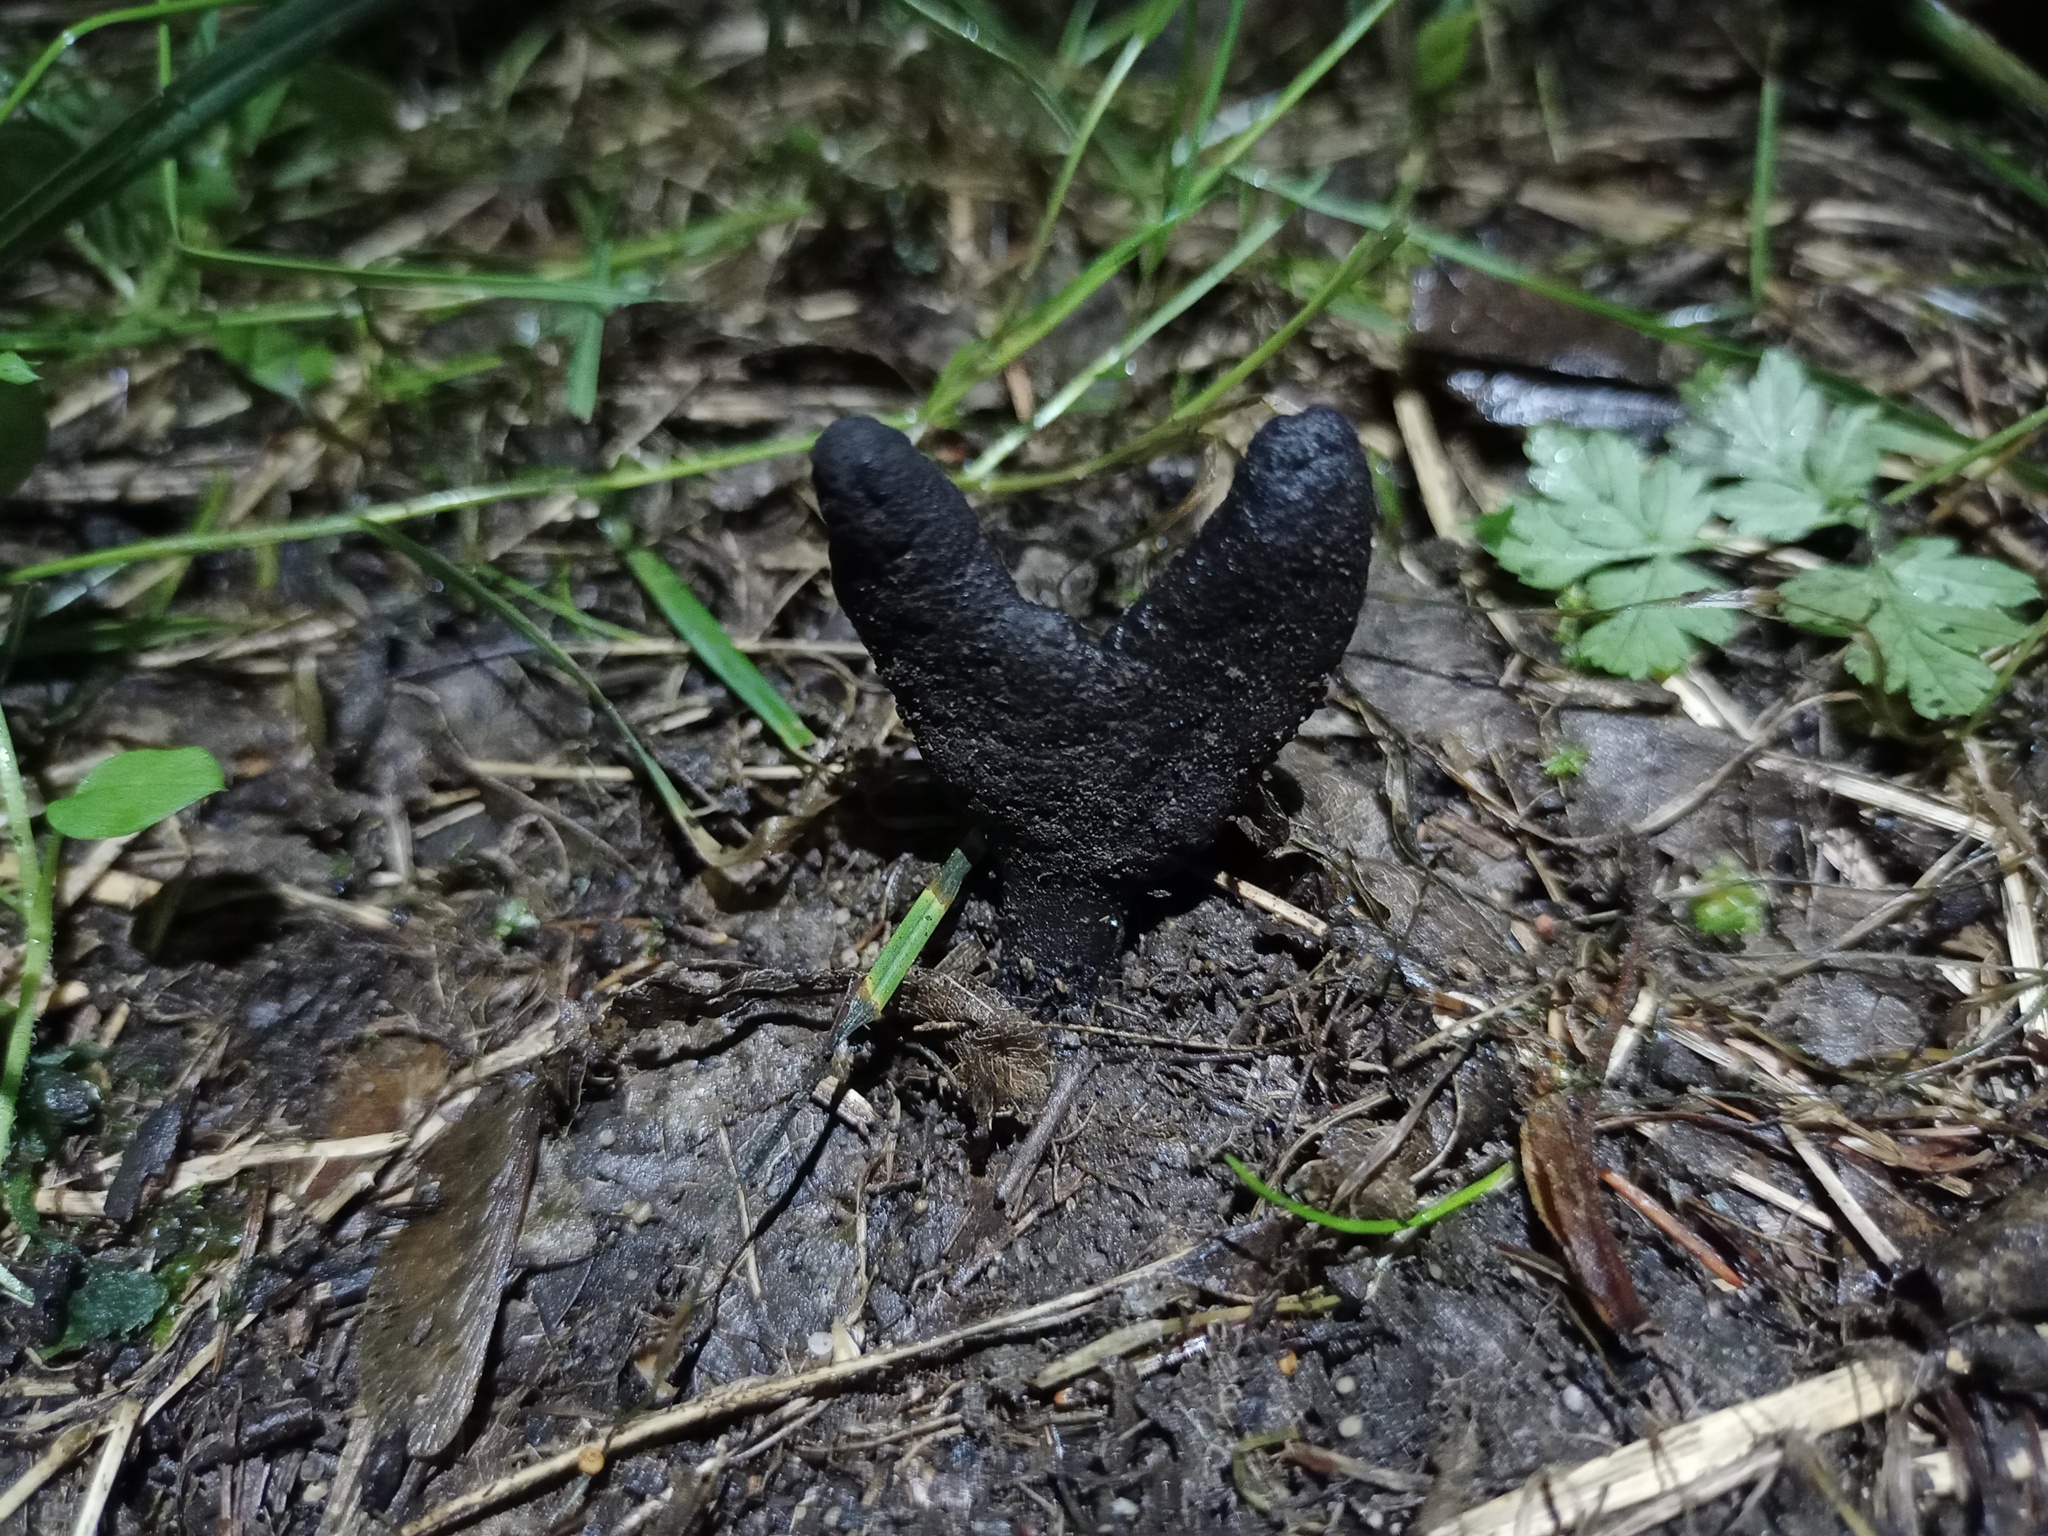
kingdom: Fungi
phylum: Ascomycota
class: Sordariomycetes
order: Xylariales
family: Xylariaceae
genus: Xylaria
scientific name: Xylaria polymorpha
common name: Dead man's fingers
